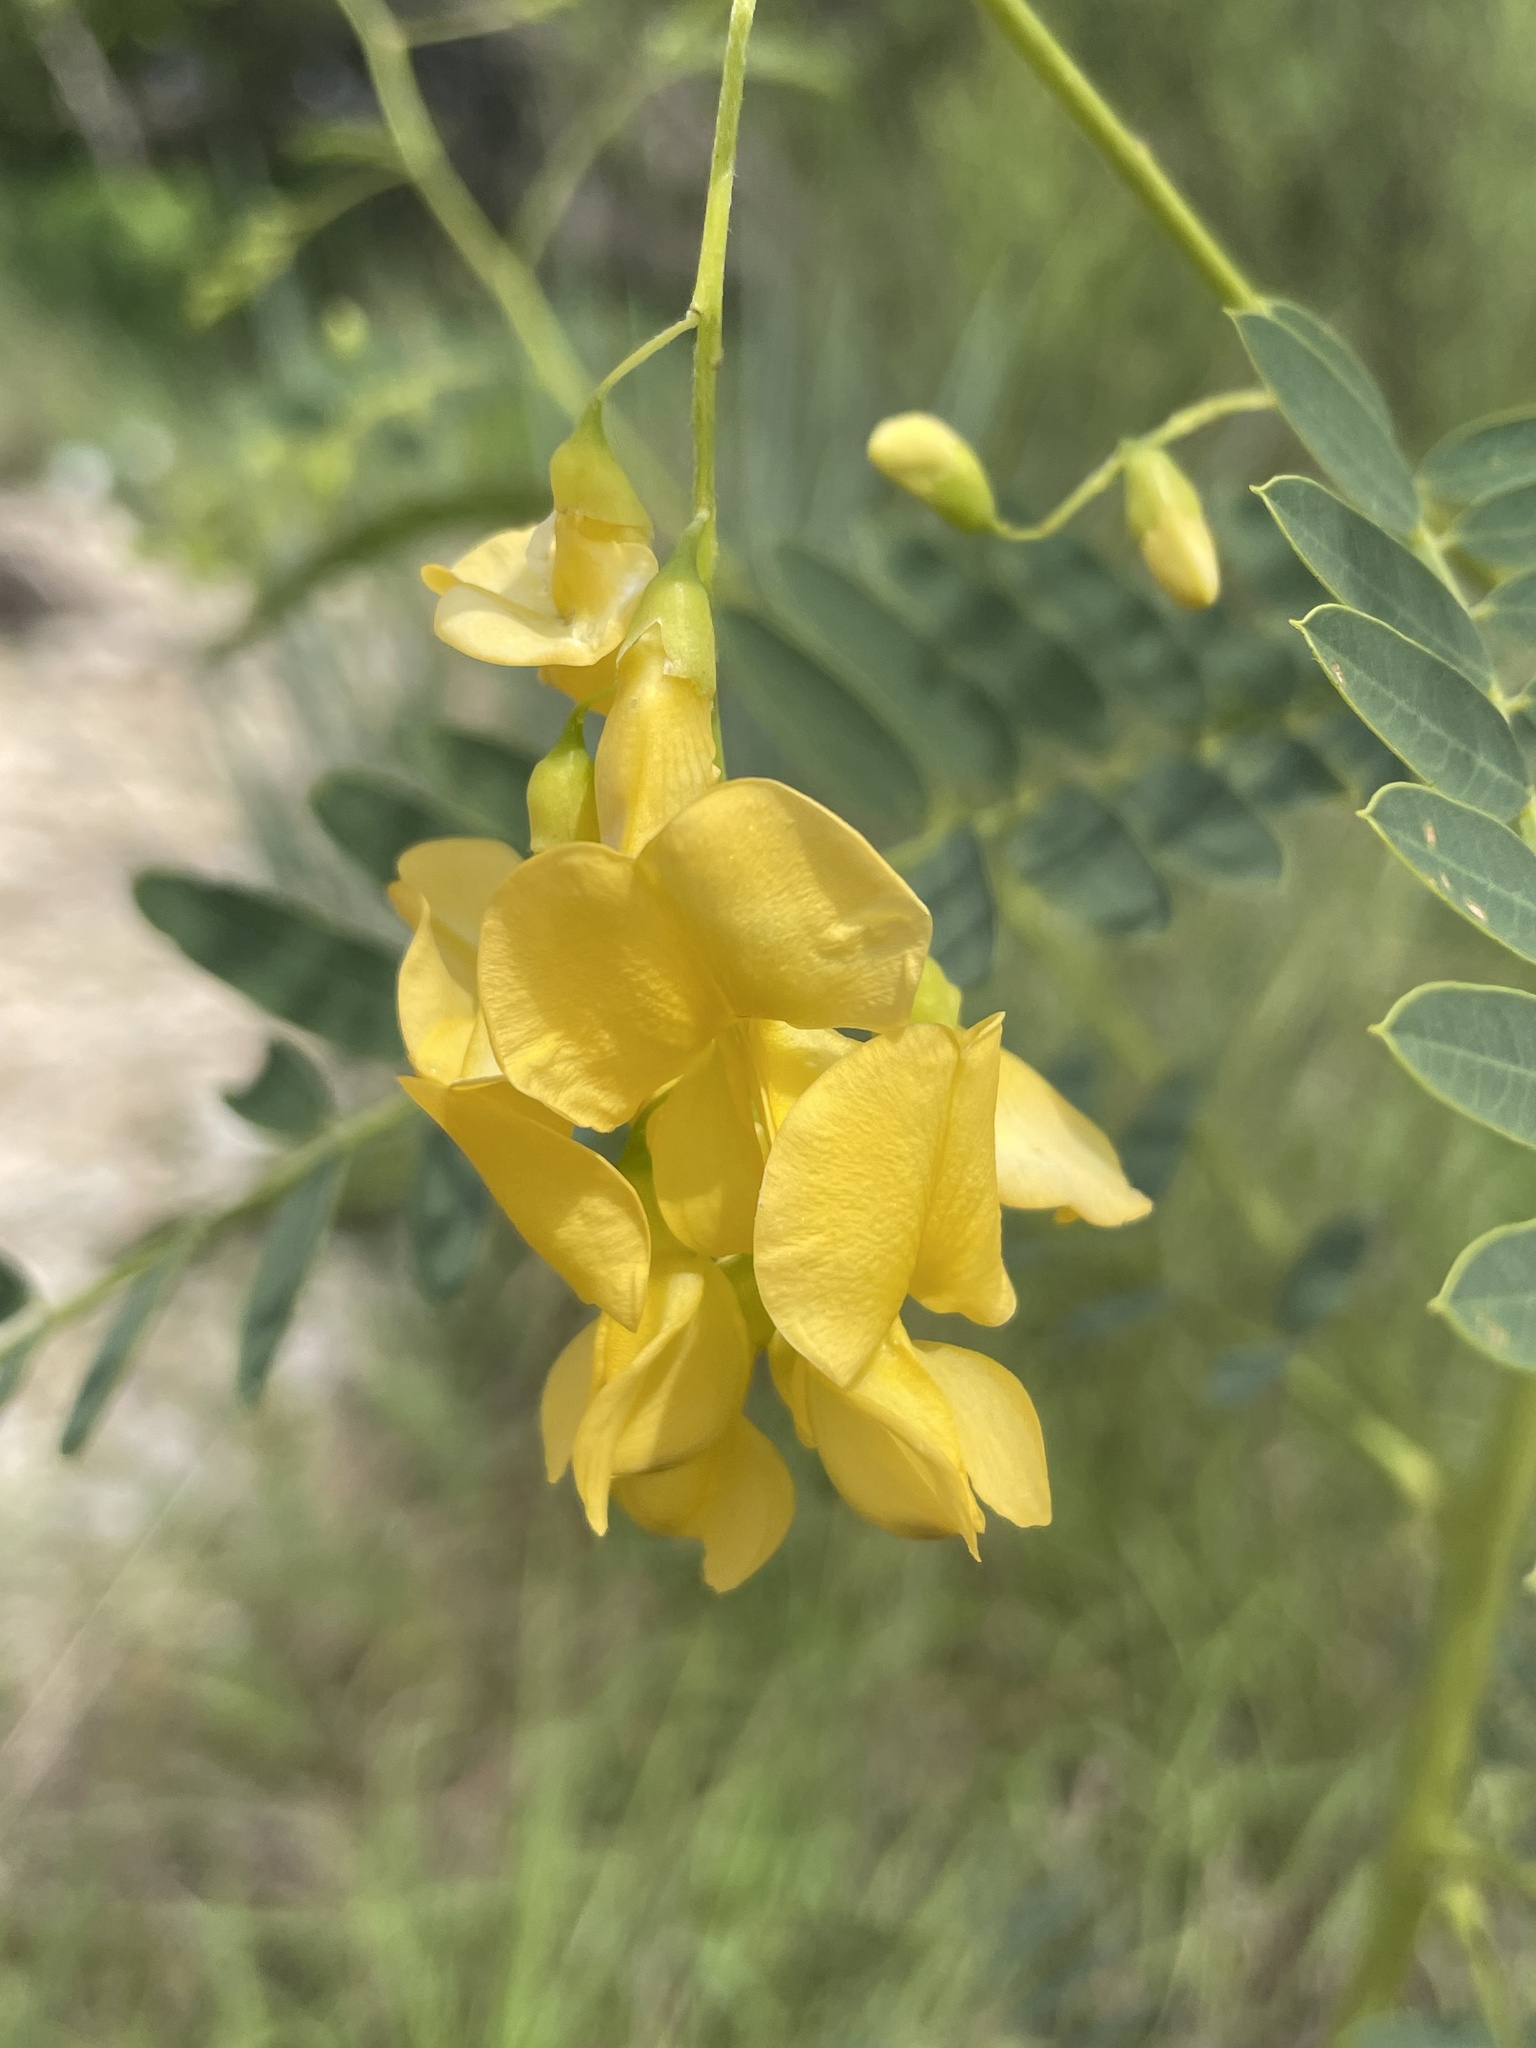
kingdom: Plantae
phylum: Tracheophyta
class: Magnoliopsida
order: Fabales
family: Fabaceae
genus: Sesbania
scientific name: Sesbania drummondii
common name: Poison-bean
